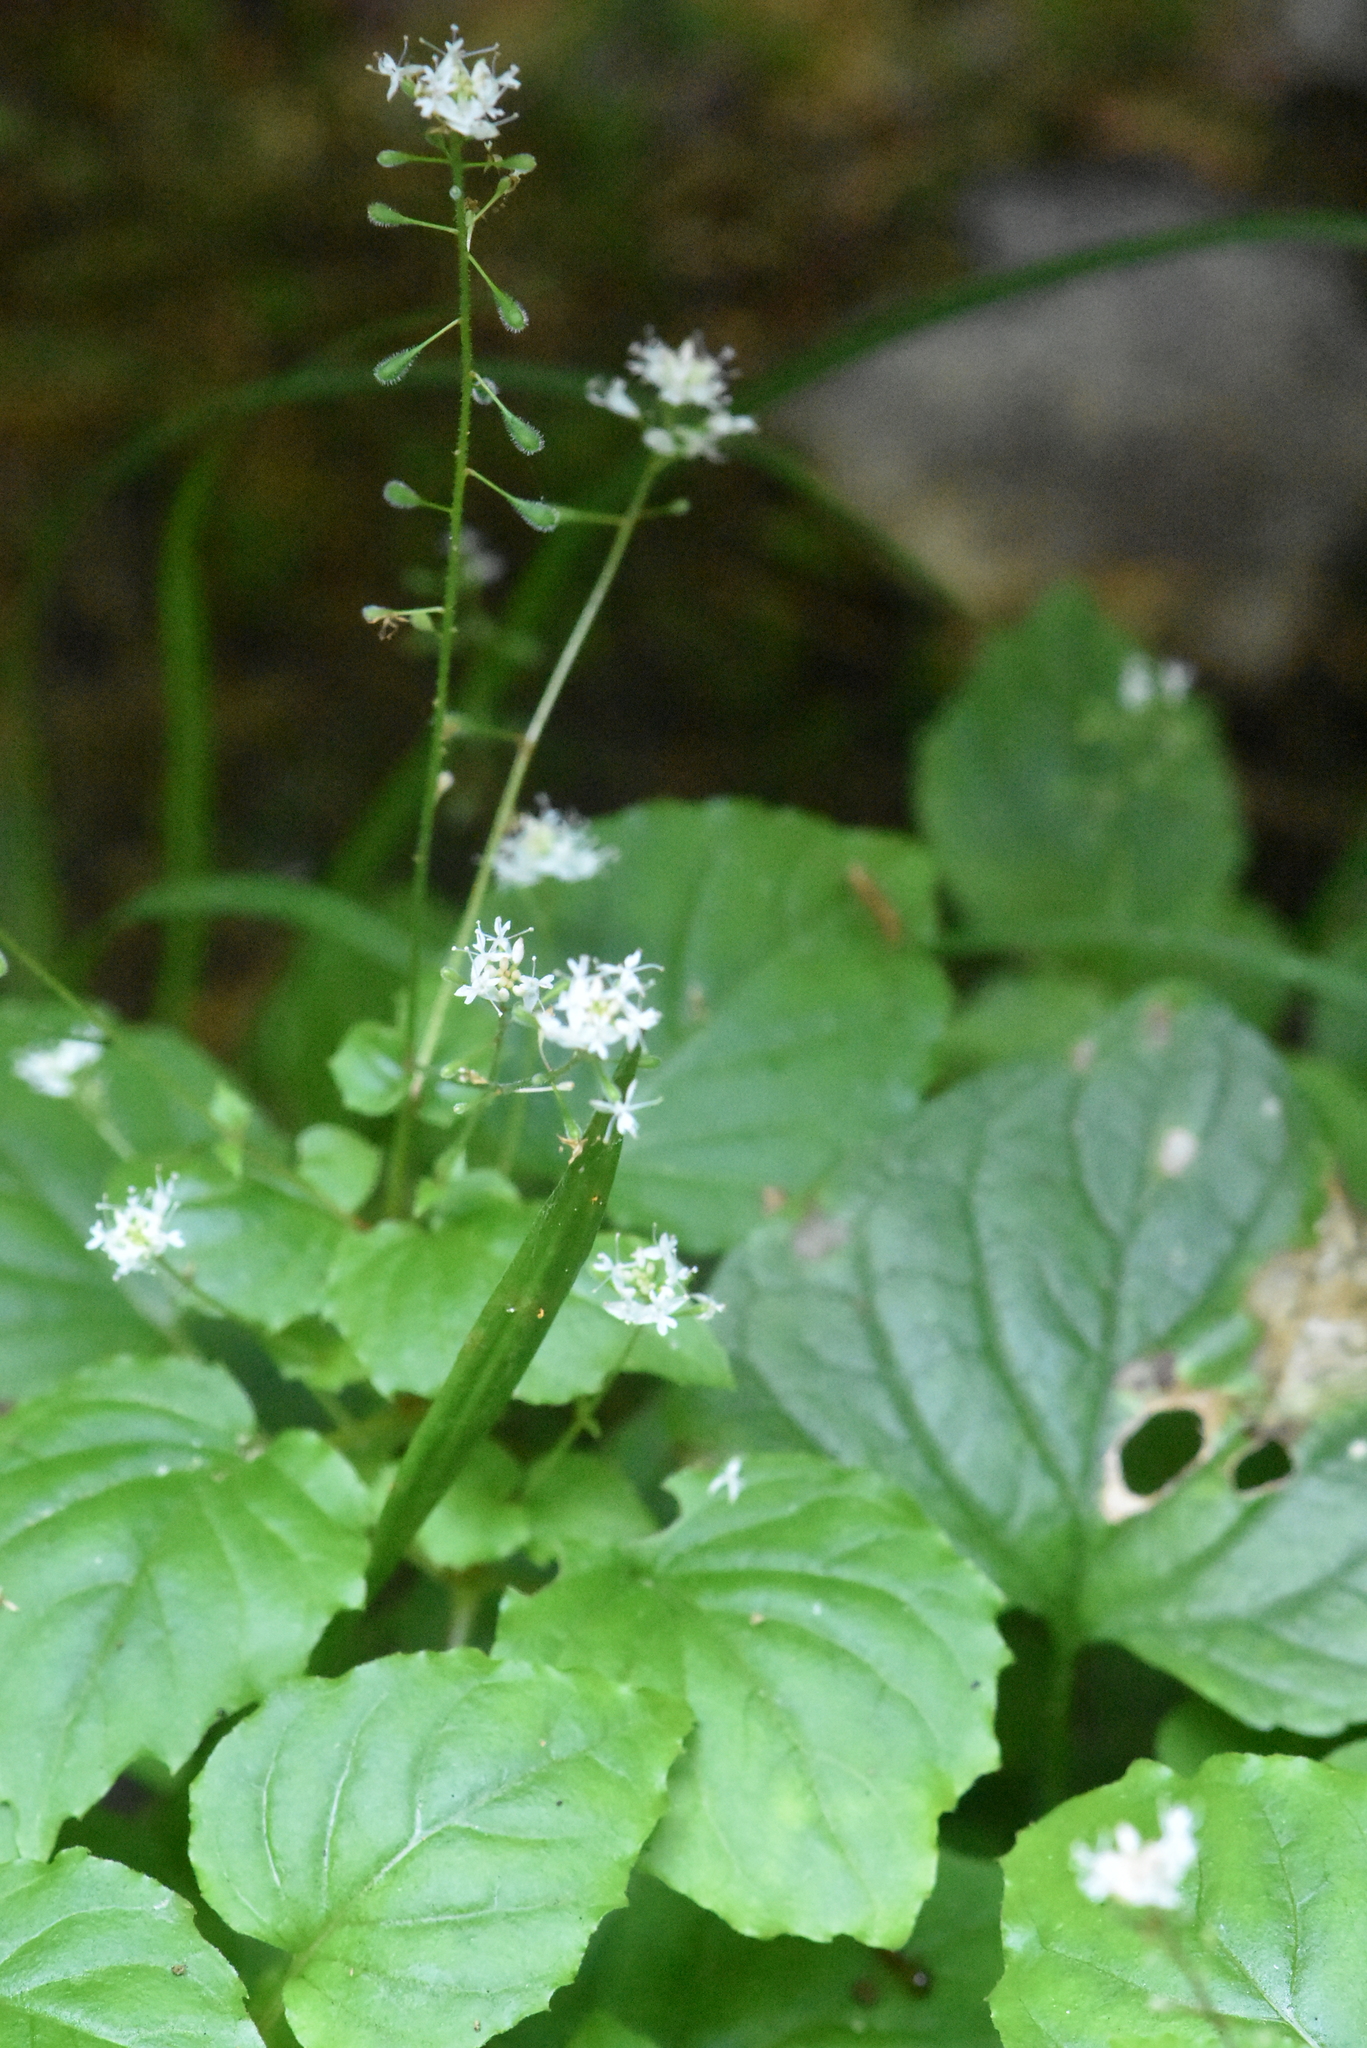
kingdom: Plantae
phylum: Tracheophyta
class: Magnoliopsida
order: Myrtales
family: Onagraceae
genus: Circaea
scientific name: Circaea alpina
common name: Alpine enchanter's-nightshade
